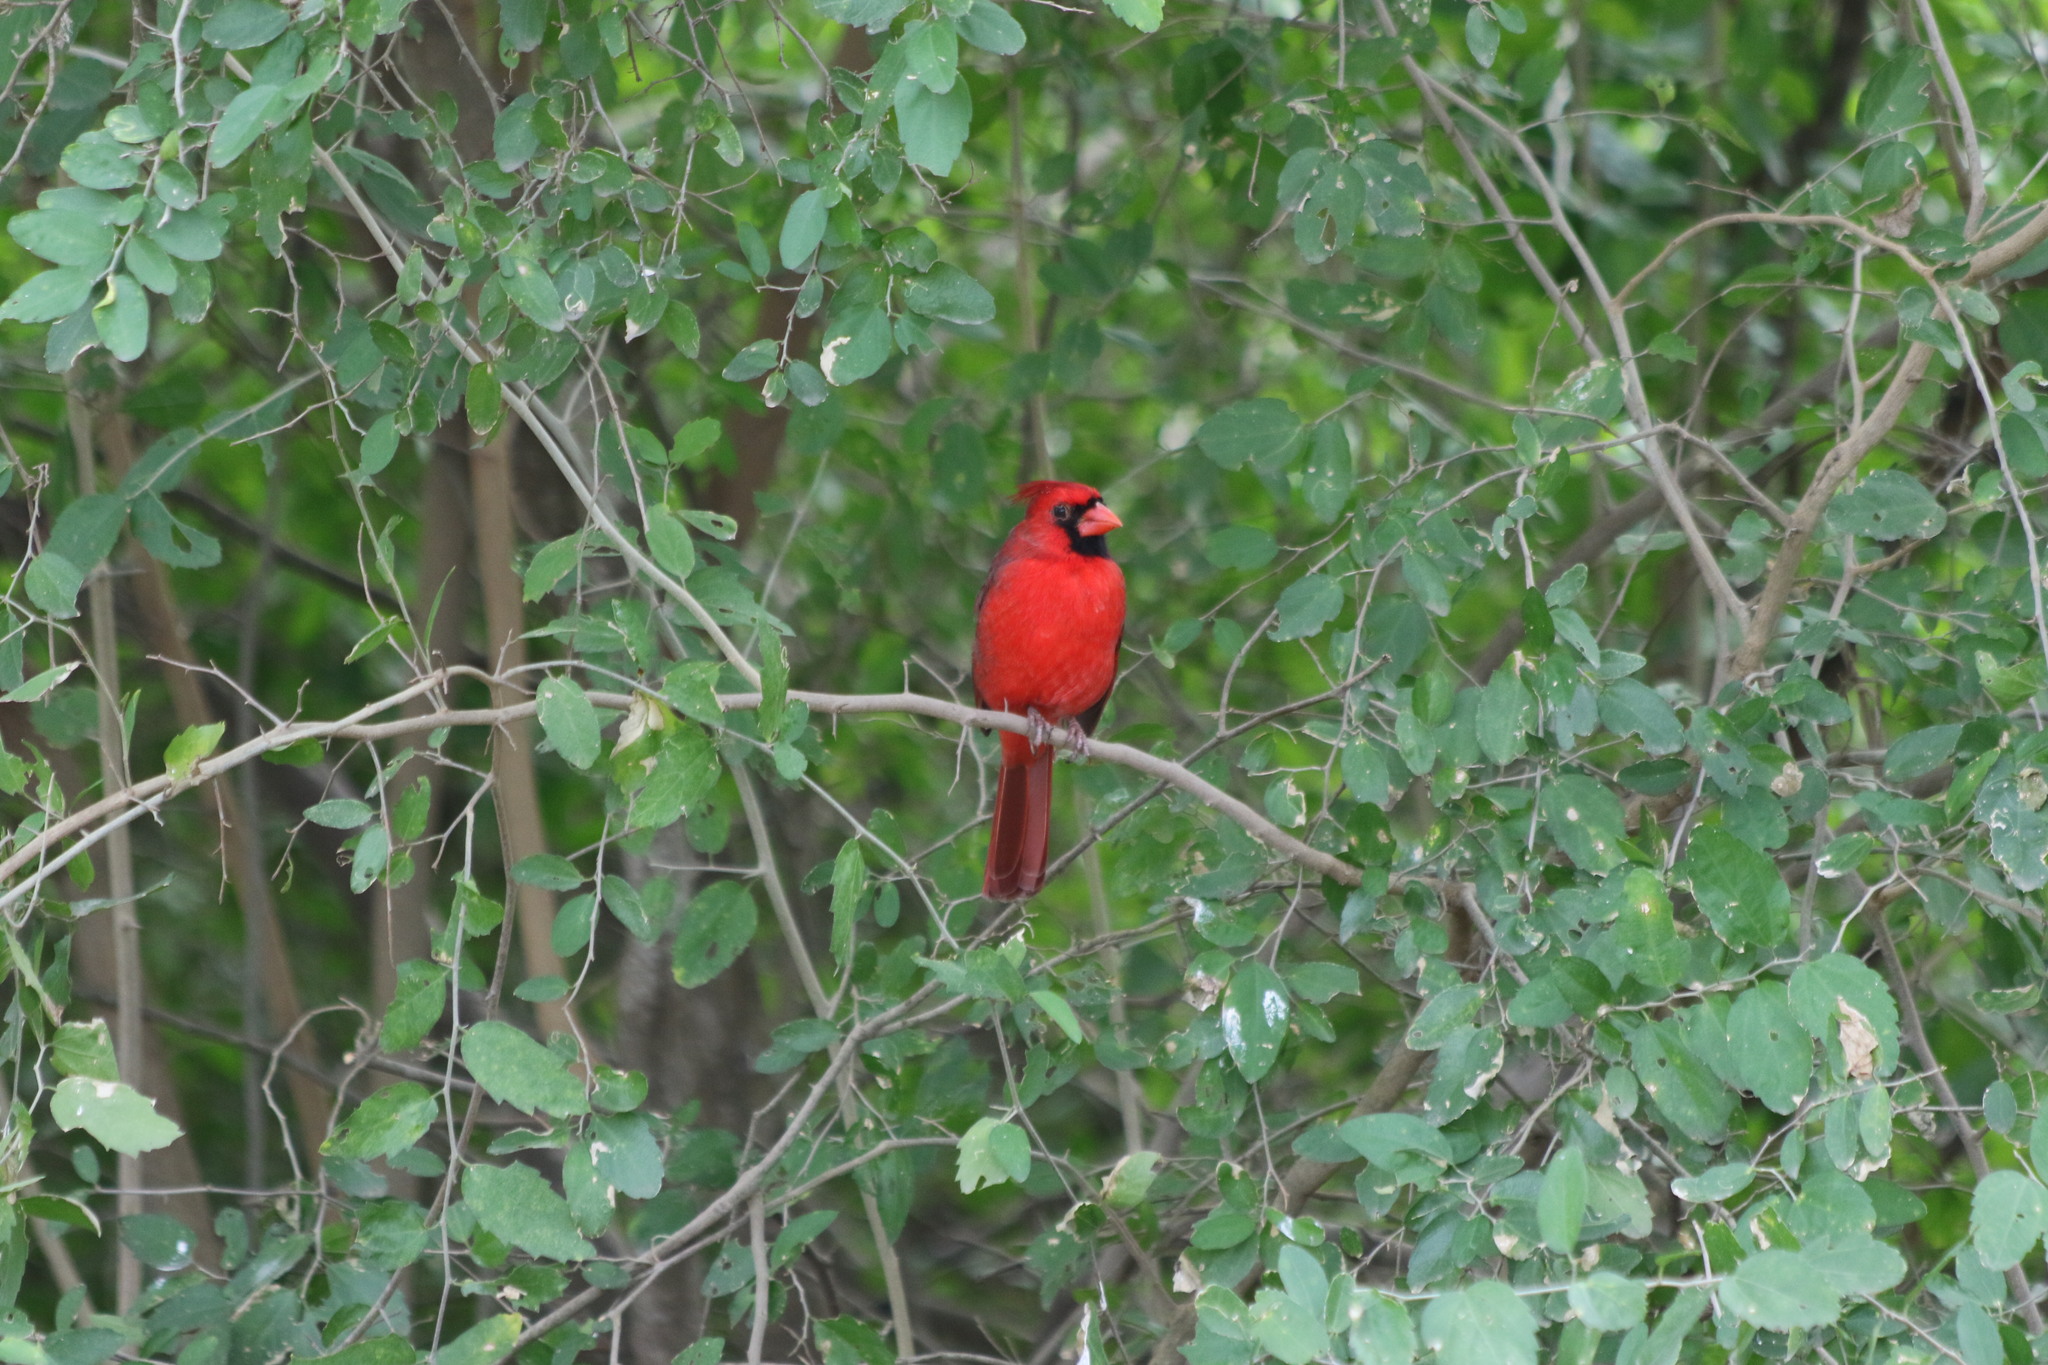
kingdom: Animalia
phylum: Chordata
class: Aves
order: Passeriformes
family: Cardinalidae
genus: Cardinalis
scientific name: Cardinalis cardinalis
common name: Northern cardinal
